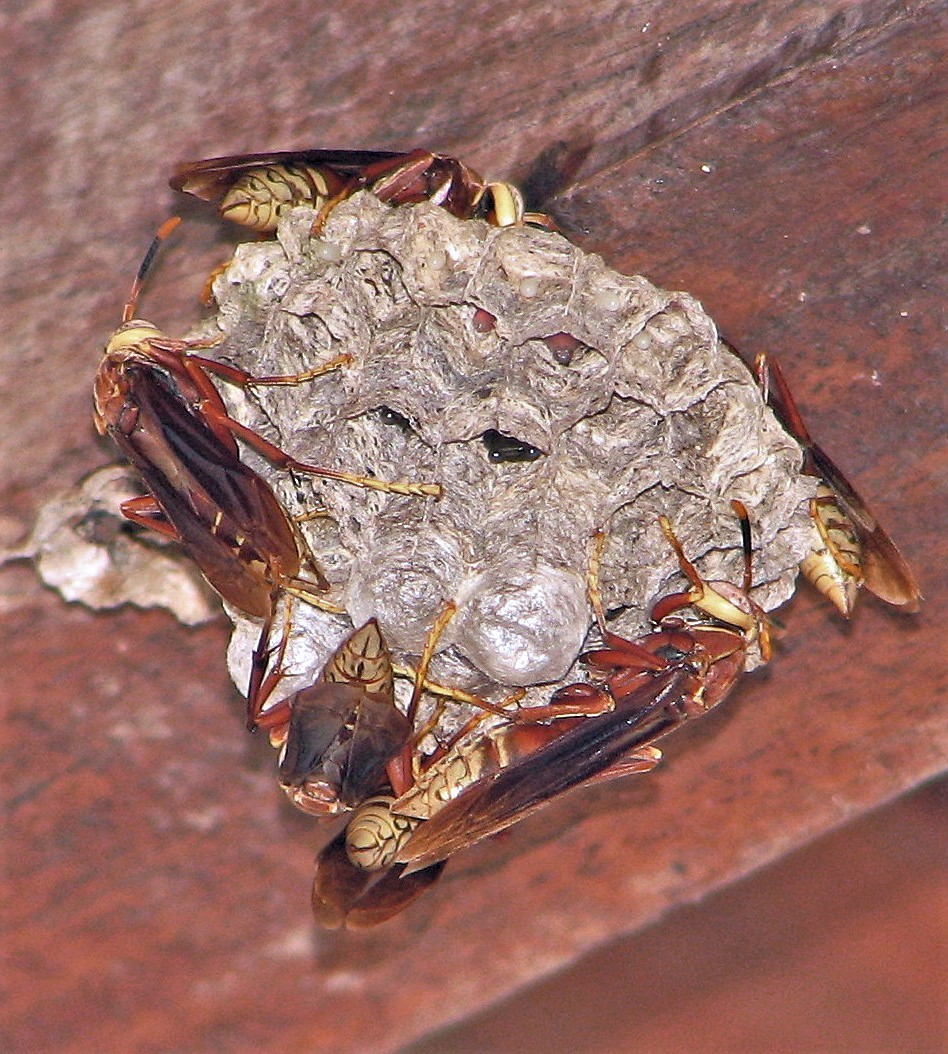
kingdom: Animalia
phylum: Arthropoda
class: Insecta
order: Hymenoptera
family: Eumenidae
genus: Polistes
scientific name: Polistes cavapyta
